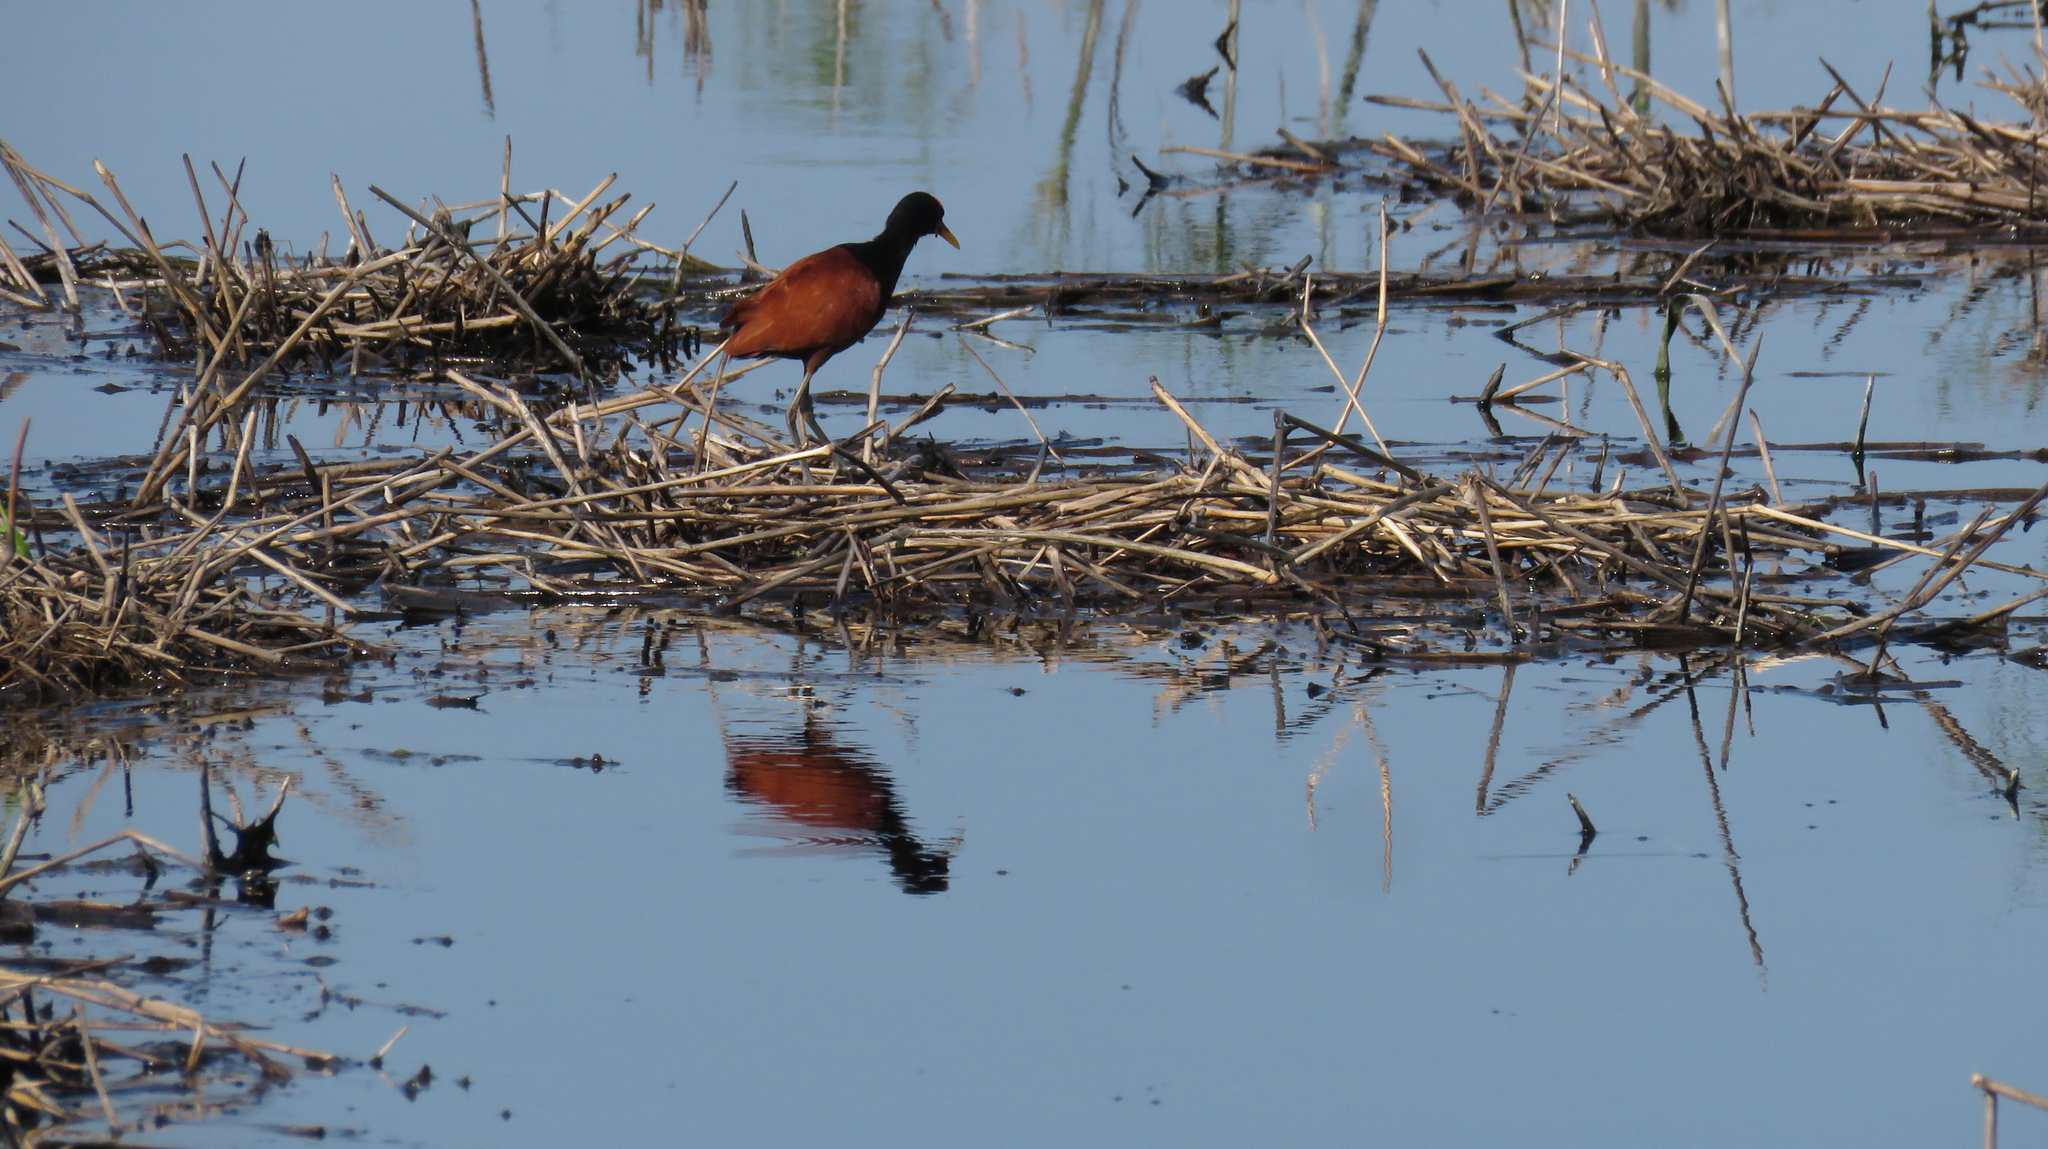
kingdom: Animalia
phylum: Chordata
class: Aves
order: Charadriiformes
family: Jacanidae
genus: Jacana
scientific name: Jacana jacana
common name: Wattled jacana
